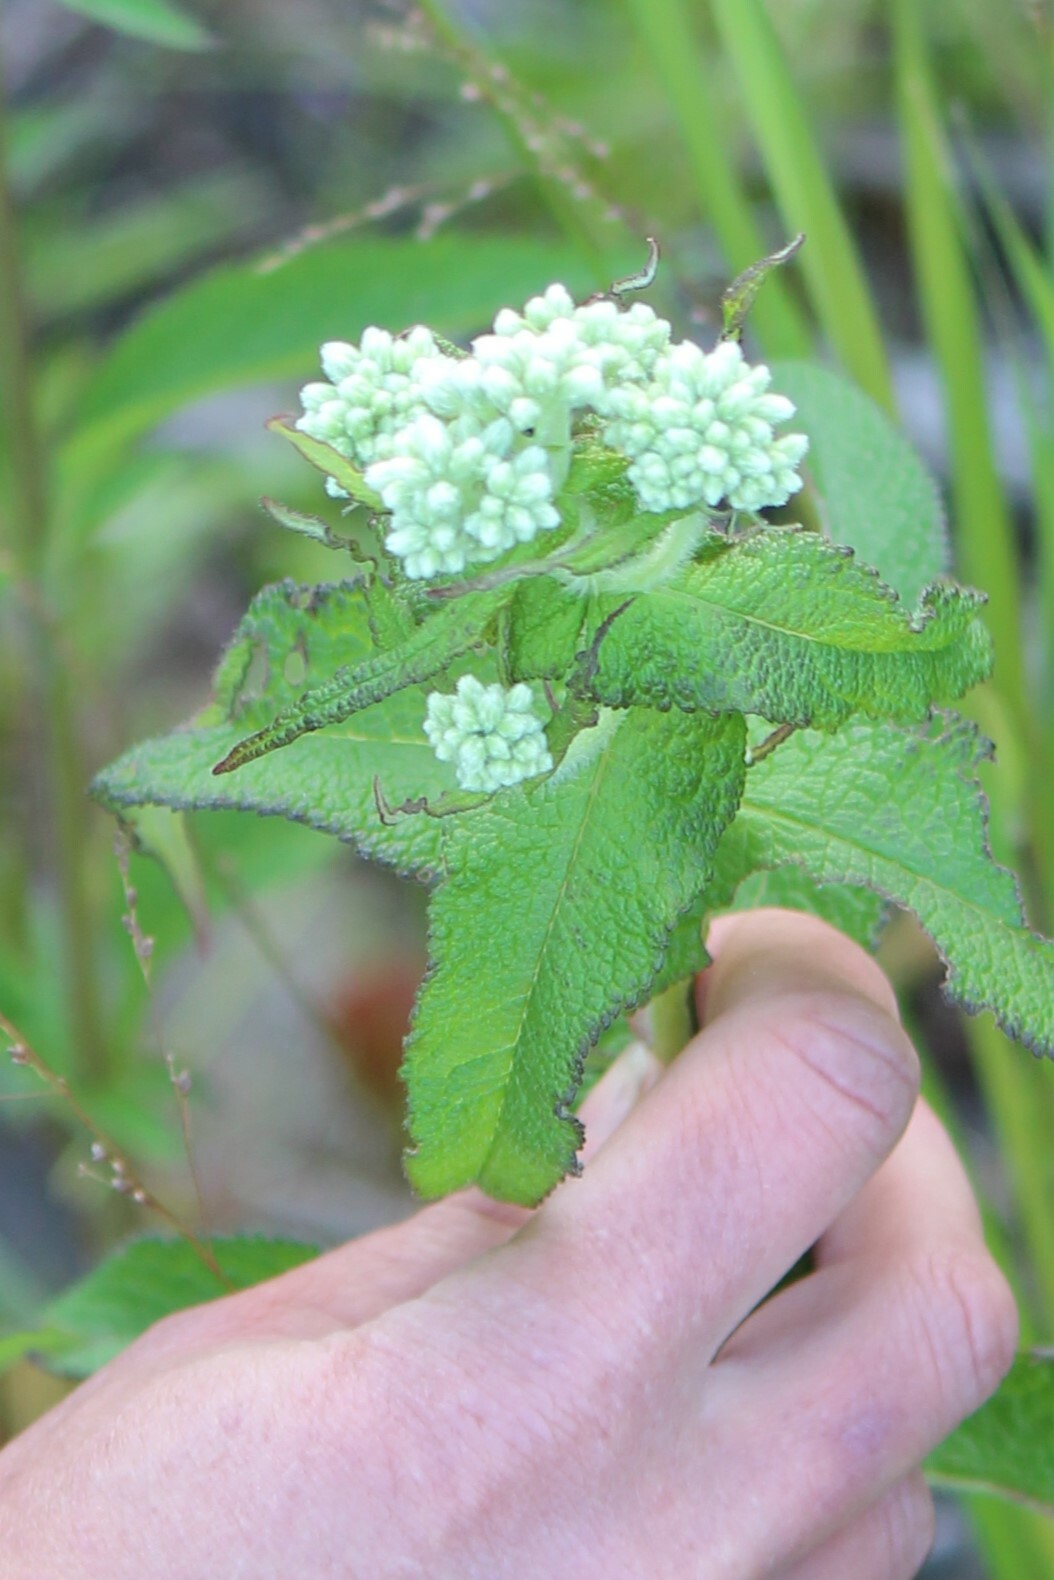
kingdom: Plantae
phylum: Tracheophyta
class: Magnoliopsida
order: Asterales
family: Asteraceae
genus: Eupatorium
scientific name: Eupatorium perfoliatum
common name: Boneset
